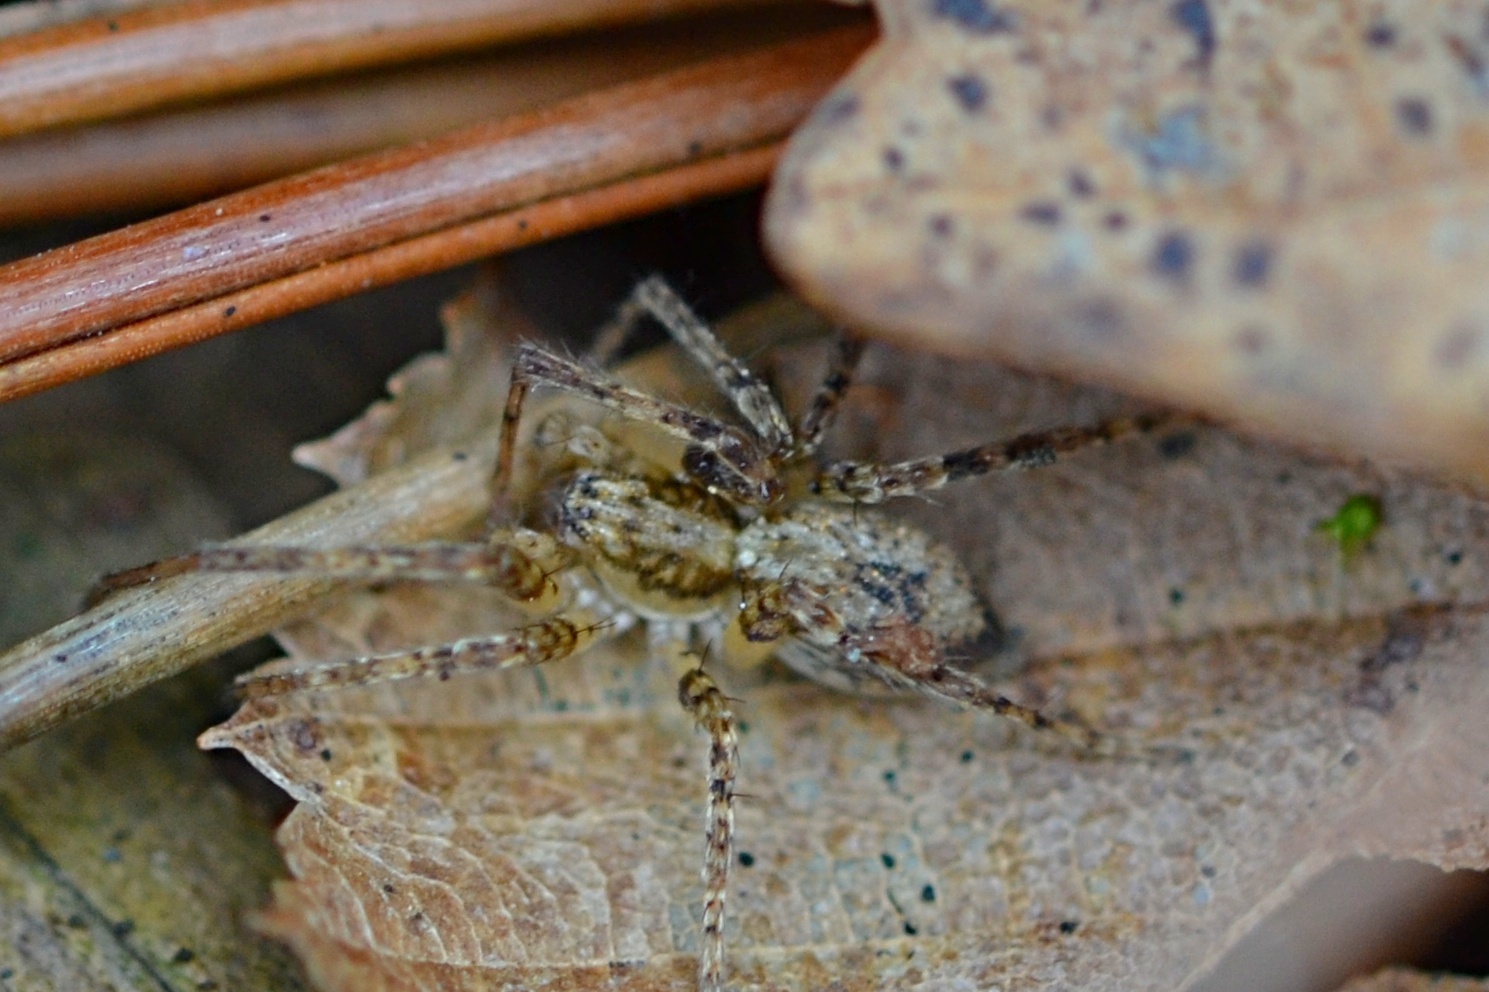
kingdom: Animalia
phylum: Arthropoda
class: Arachnida
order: Araneae
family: Anyphaenidae
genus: Anyphaena
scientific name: Anyphaena accentuata
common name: Buzzing spider
